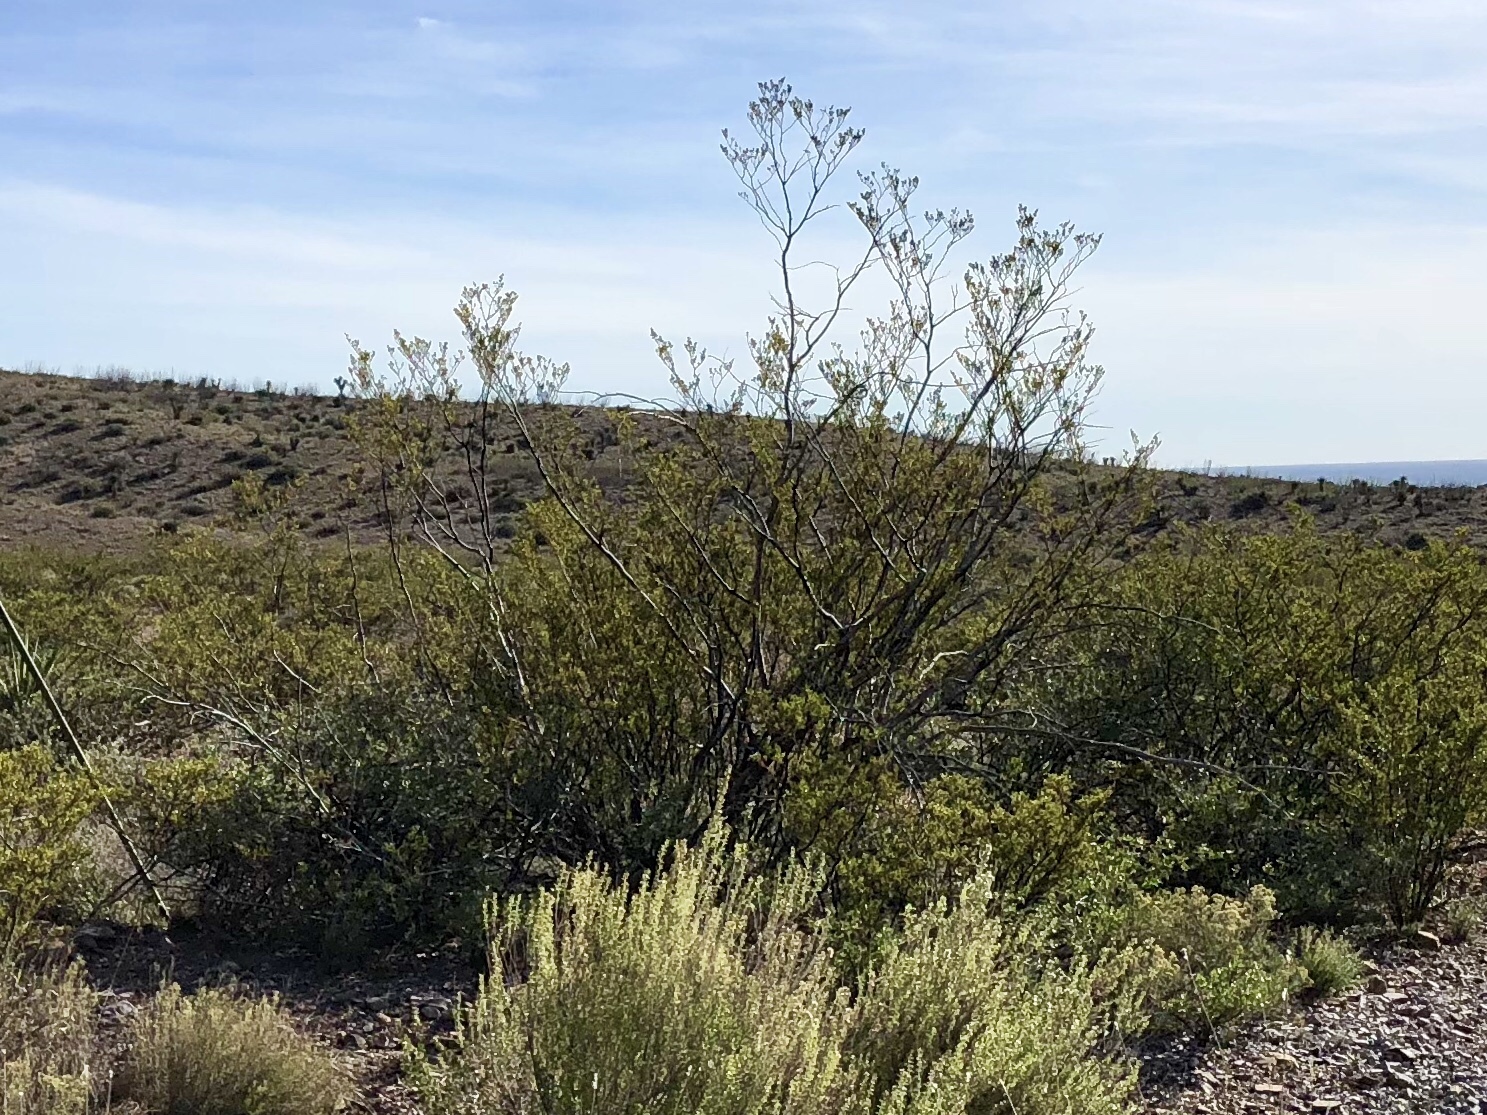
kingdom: Plantae
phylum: Tracheophyta
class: Magnoliopsida
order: Zygophyllales
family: Zygophyllaceae
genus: Larrea
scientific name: Larrea tridentata
